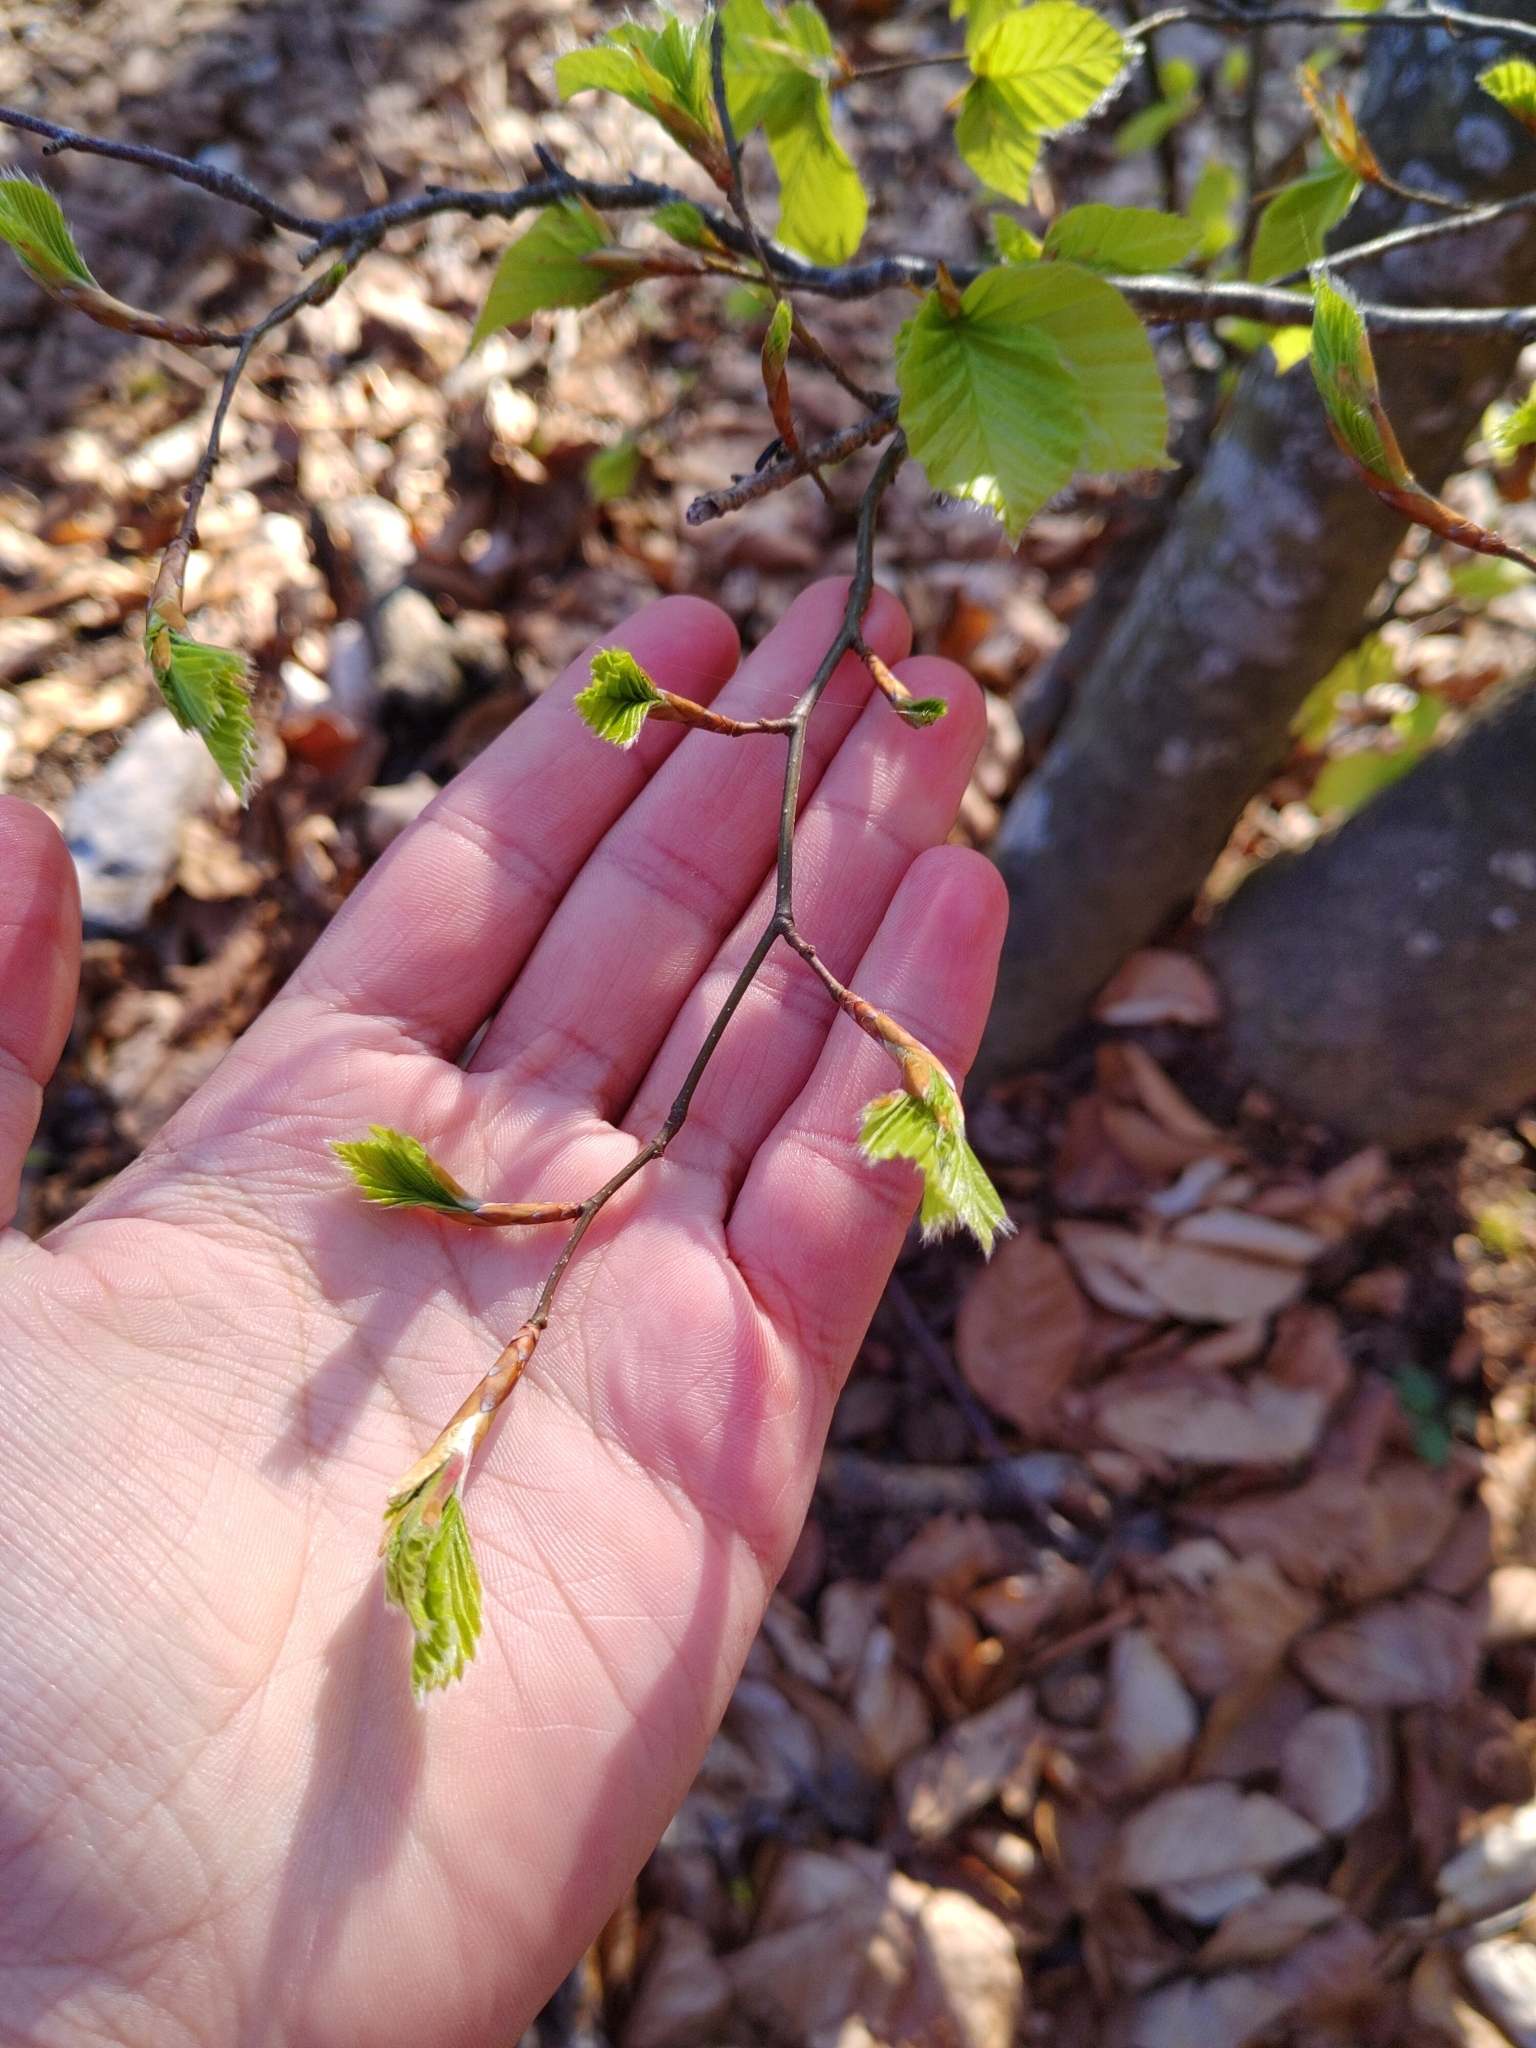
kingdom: Plantae
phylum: Tracheophyta
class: Magnoliopsida
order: Fagales
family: Fagaceae
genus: Fagus
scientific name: Fagus sylvatica
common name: Beech
